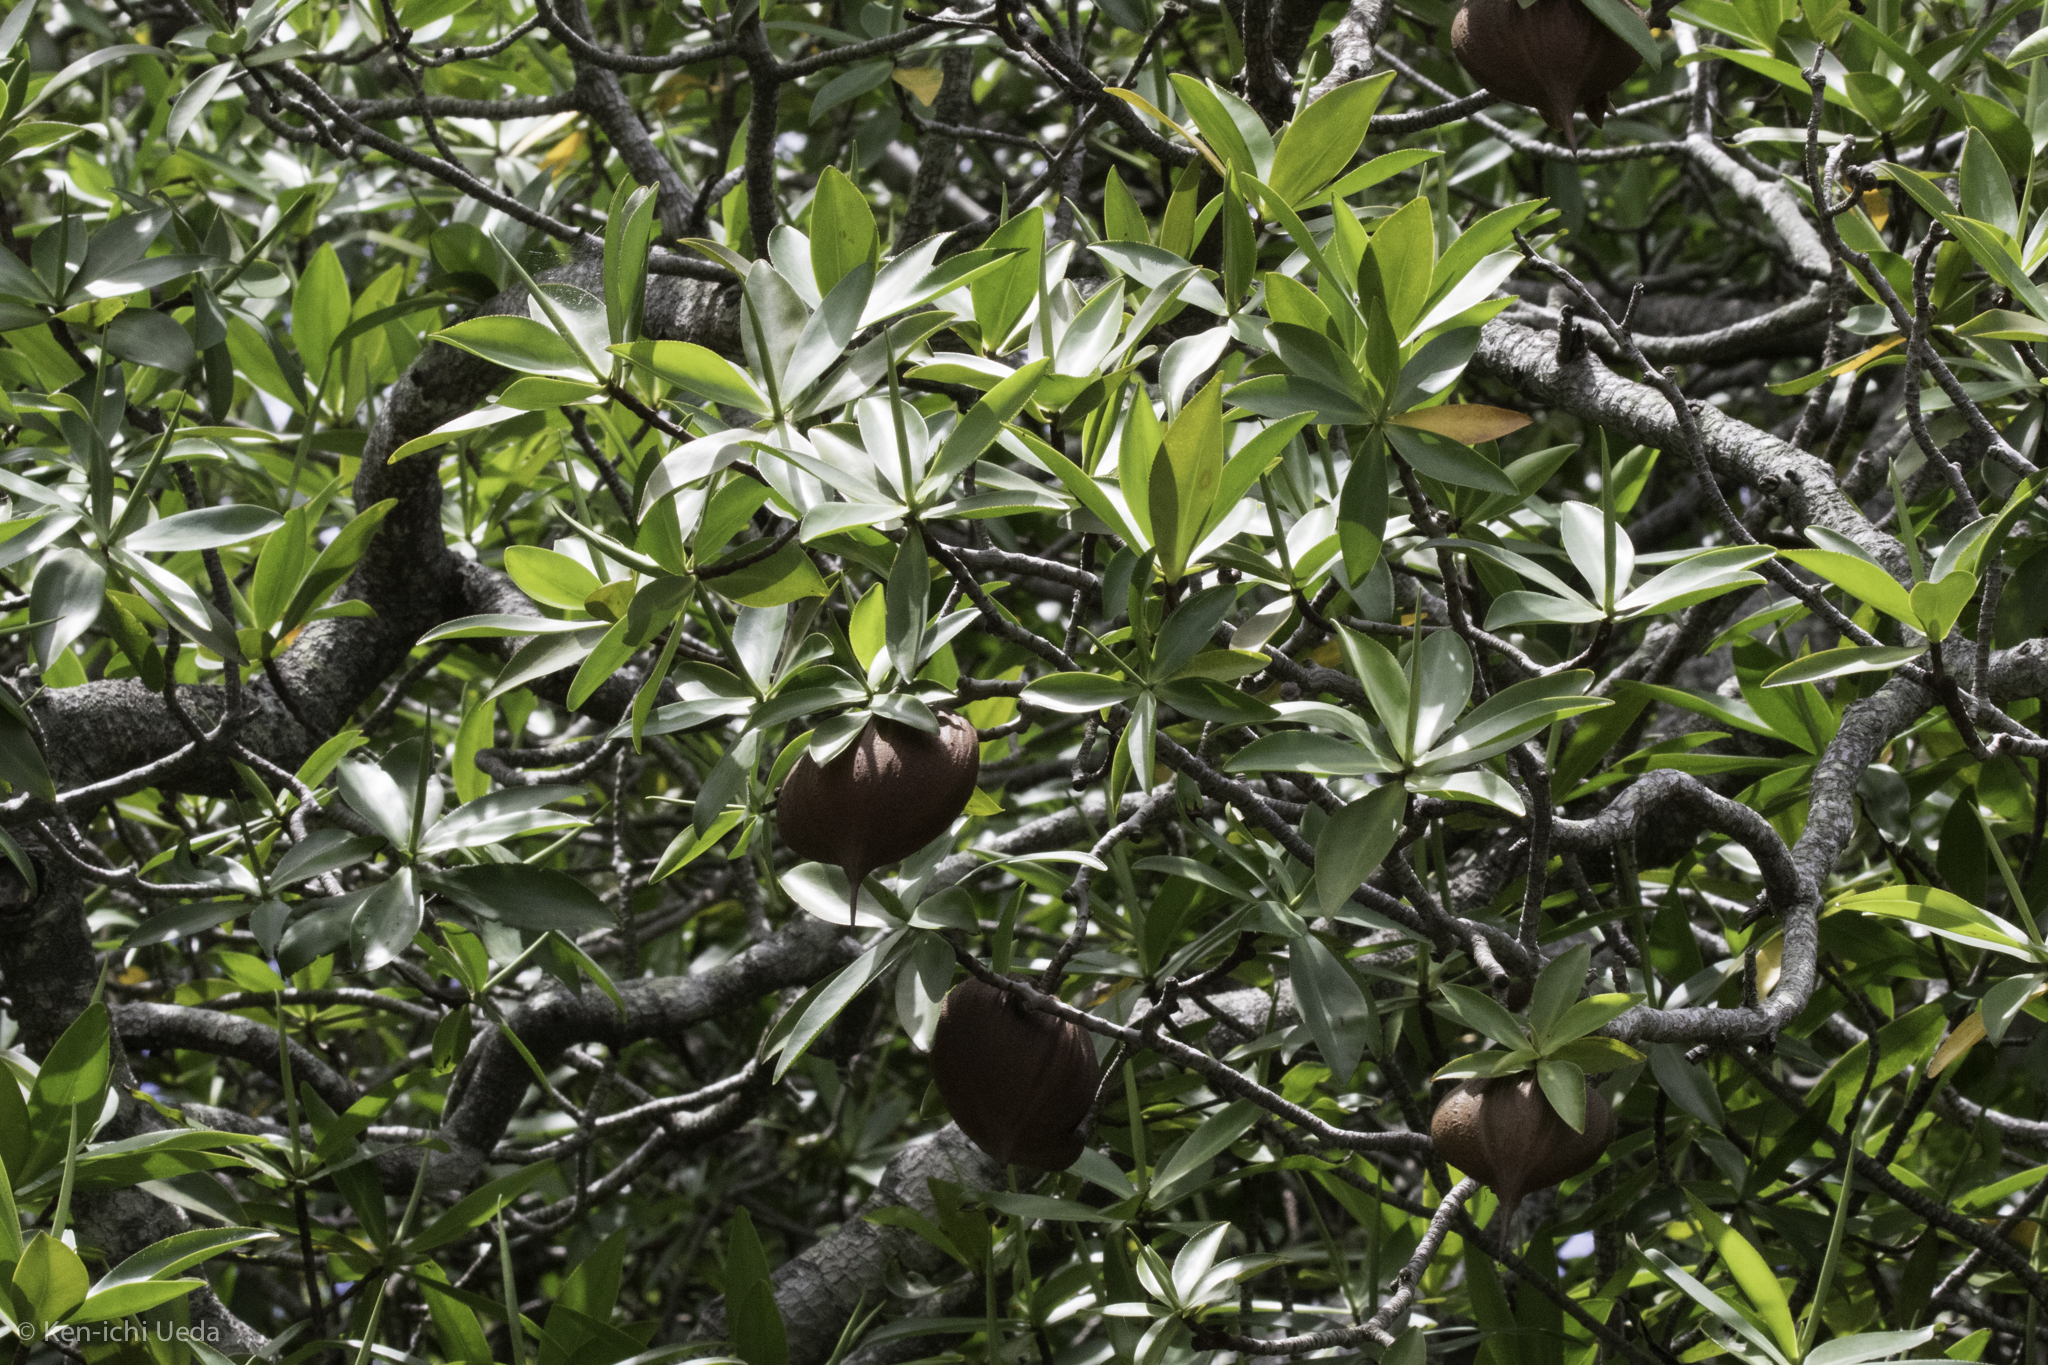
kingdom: Plantae
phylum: Tracheophyta
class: Magnoliopsida
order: Ericales
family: Tetrameristaceae
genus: Pelliciera
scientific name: Pelliciera rhizophorae
